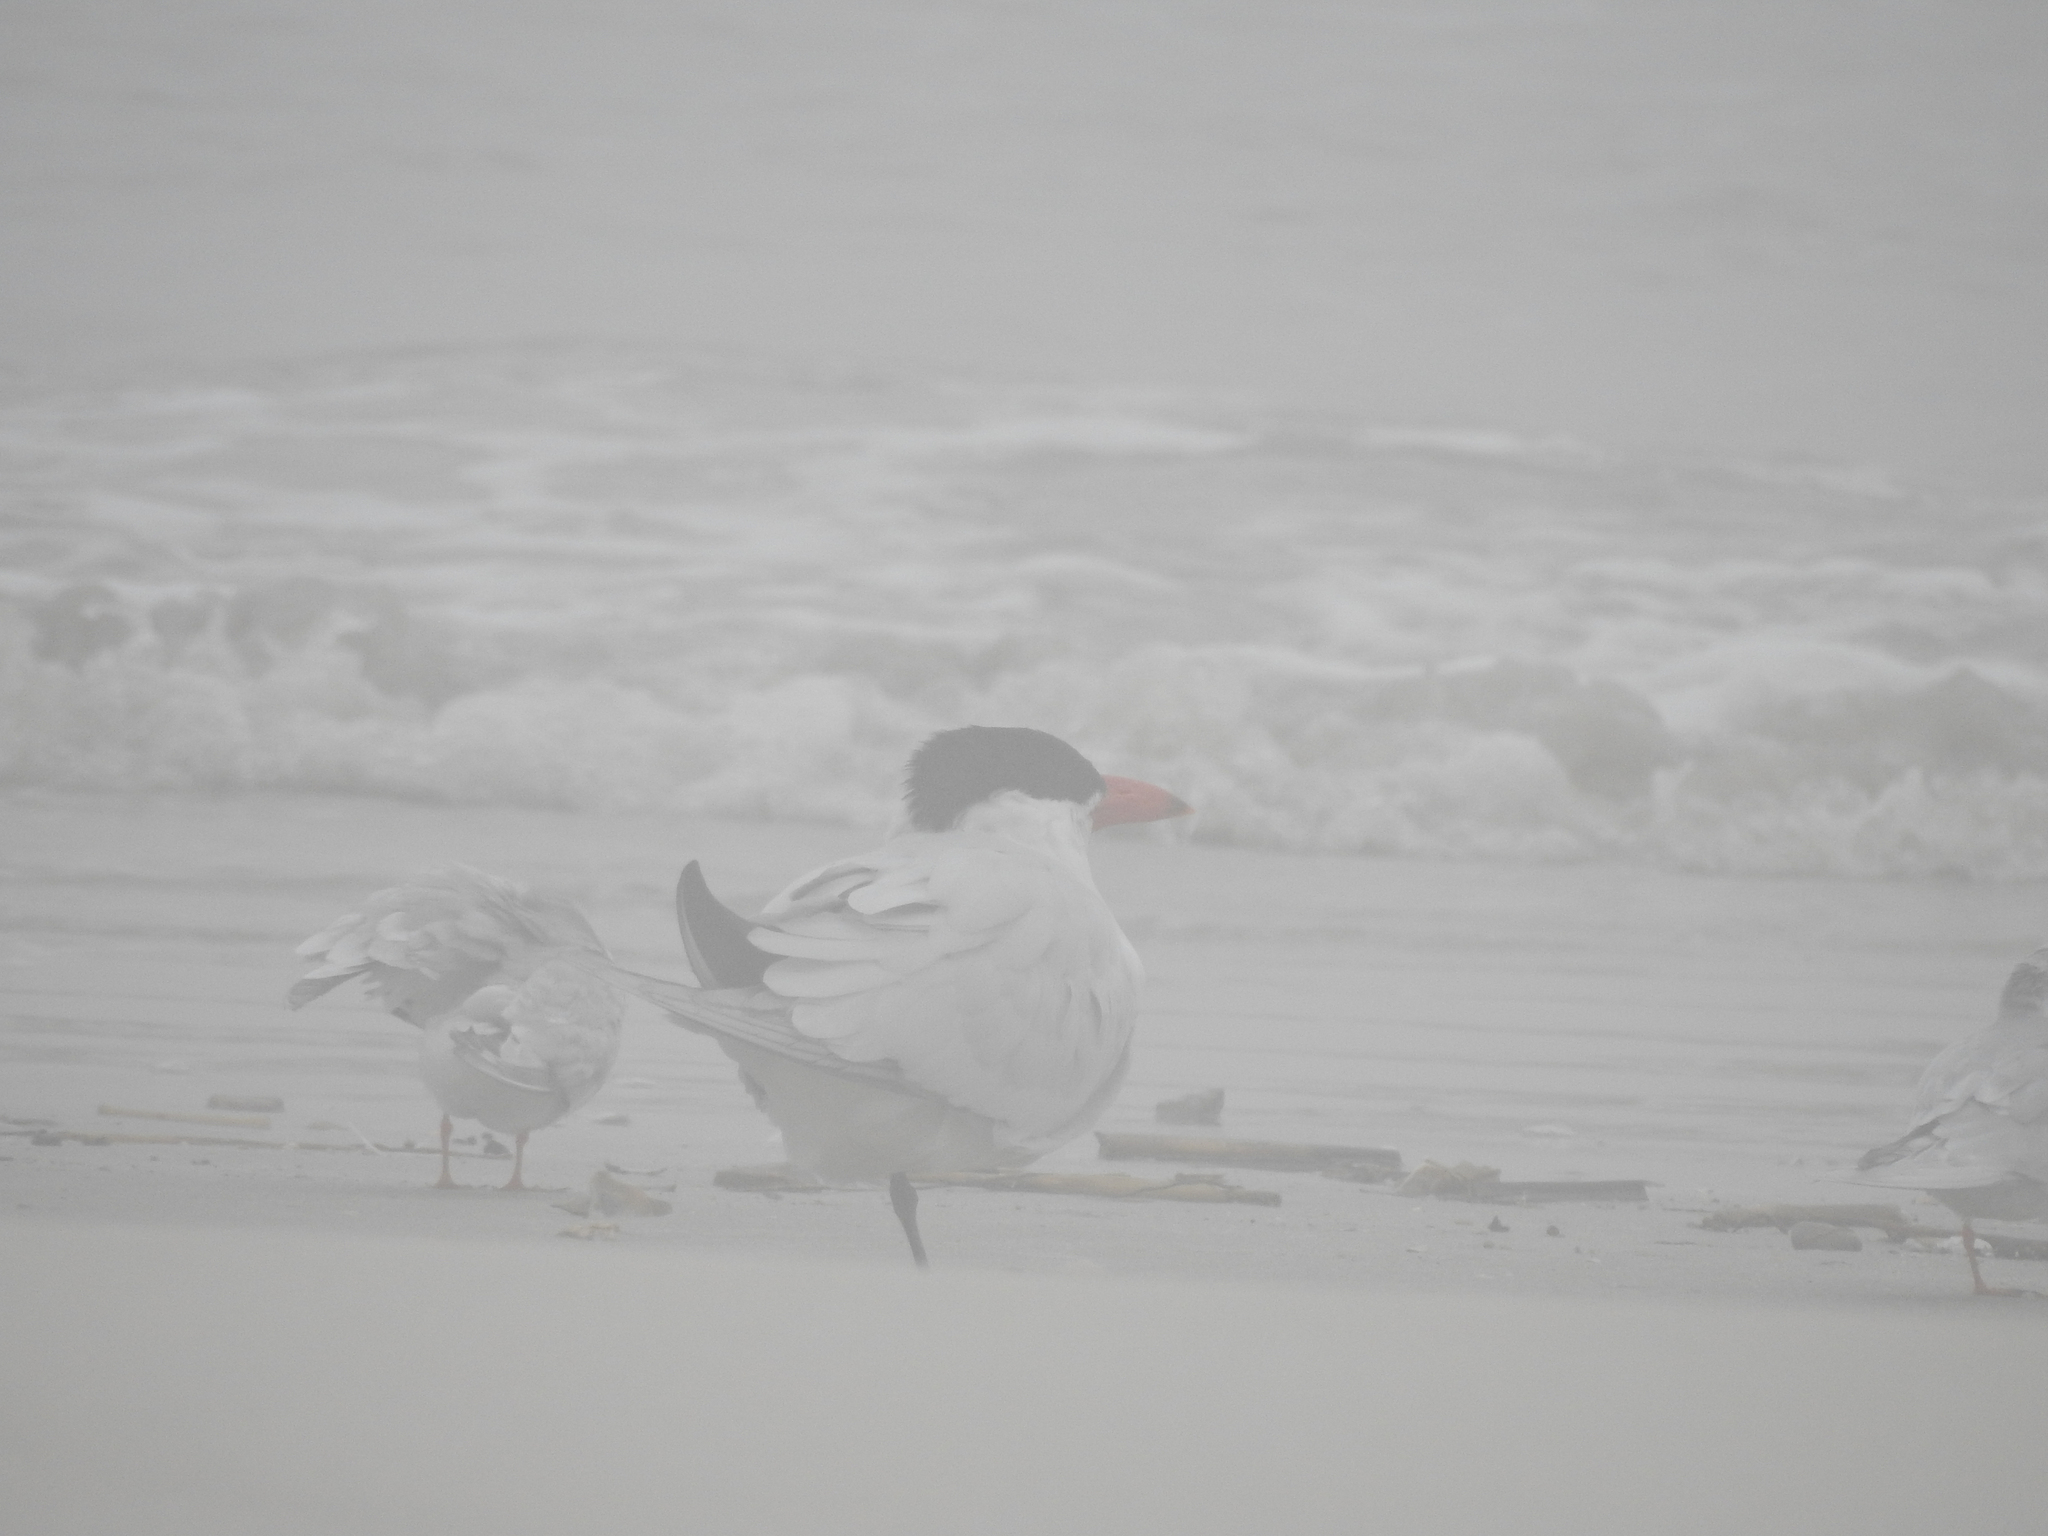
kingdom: Animalia
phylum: Chordata
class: Aves
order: Charadriiformes
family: Laridae
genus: Hydroprogne
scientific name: Hydroprogne caspia
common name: Caspian tern
